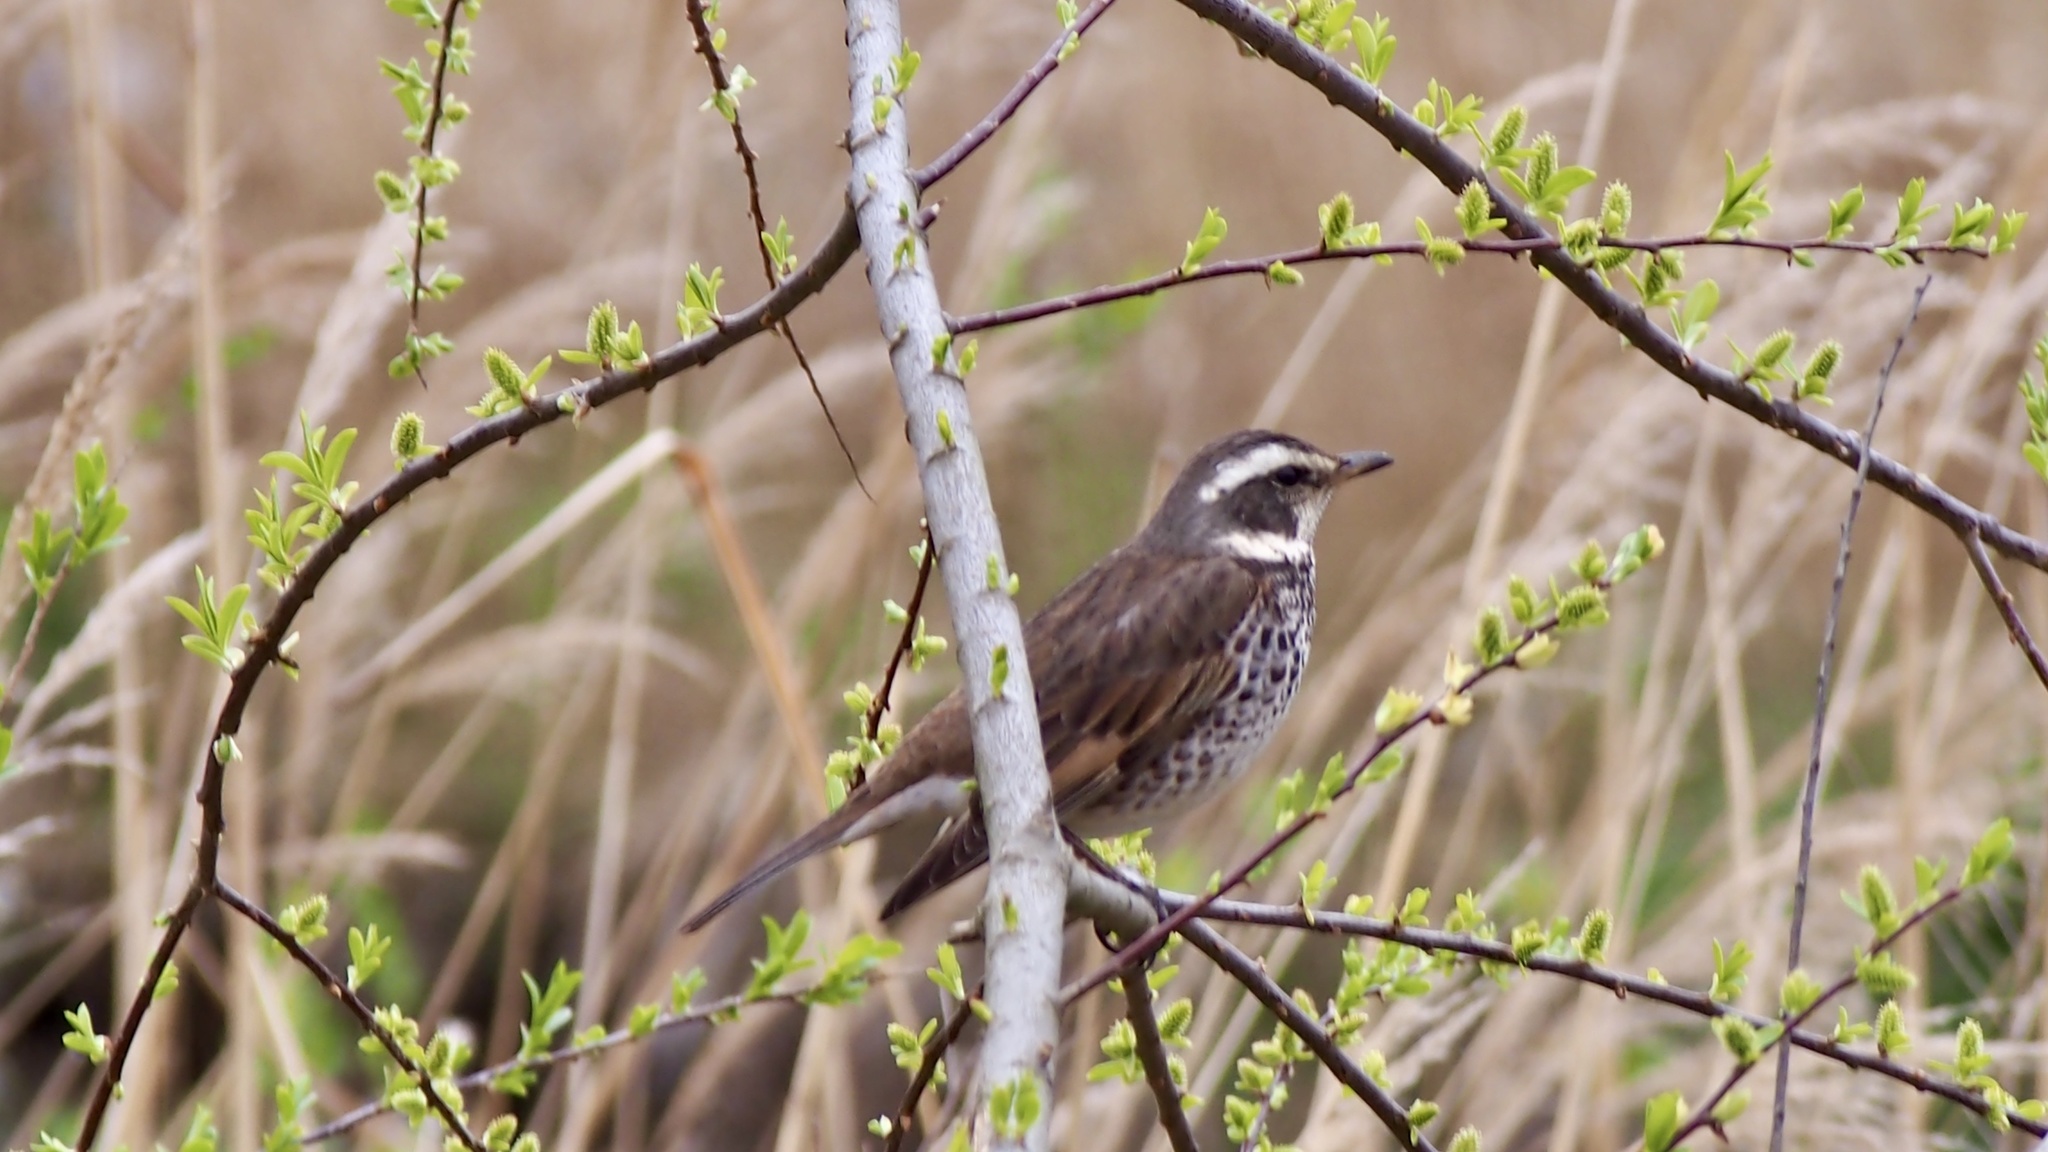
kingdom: Animalia
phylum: Chordata
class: Aves
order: Passeriformes
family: Turdidae
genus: Turdus
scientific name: Turdus eunomus
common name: Dusky thrush
